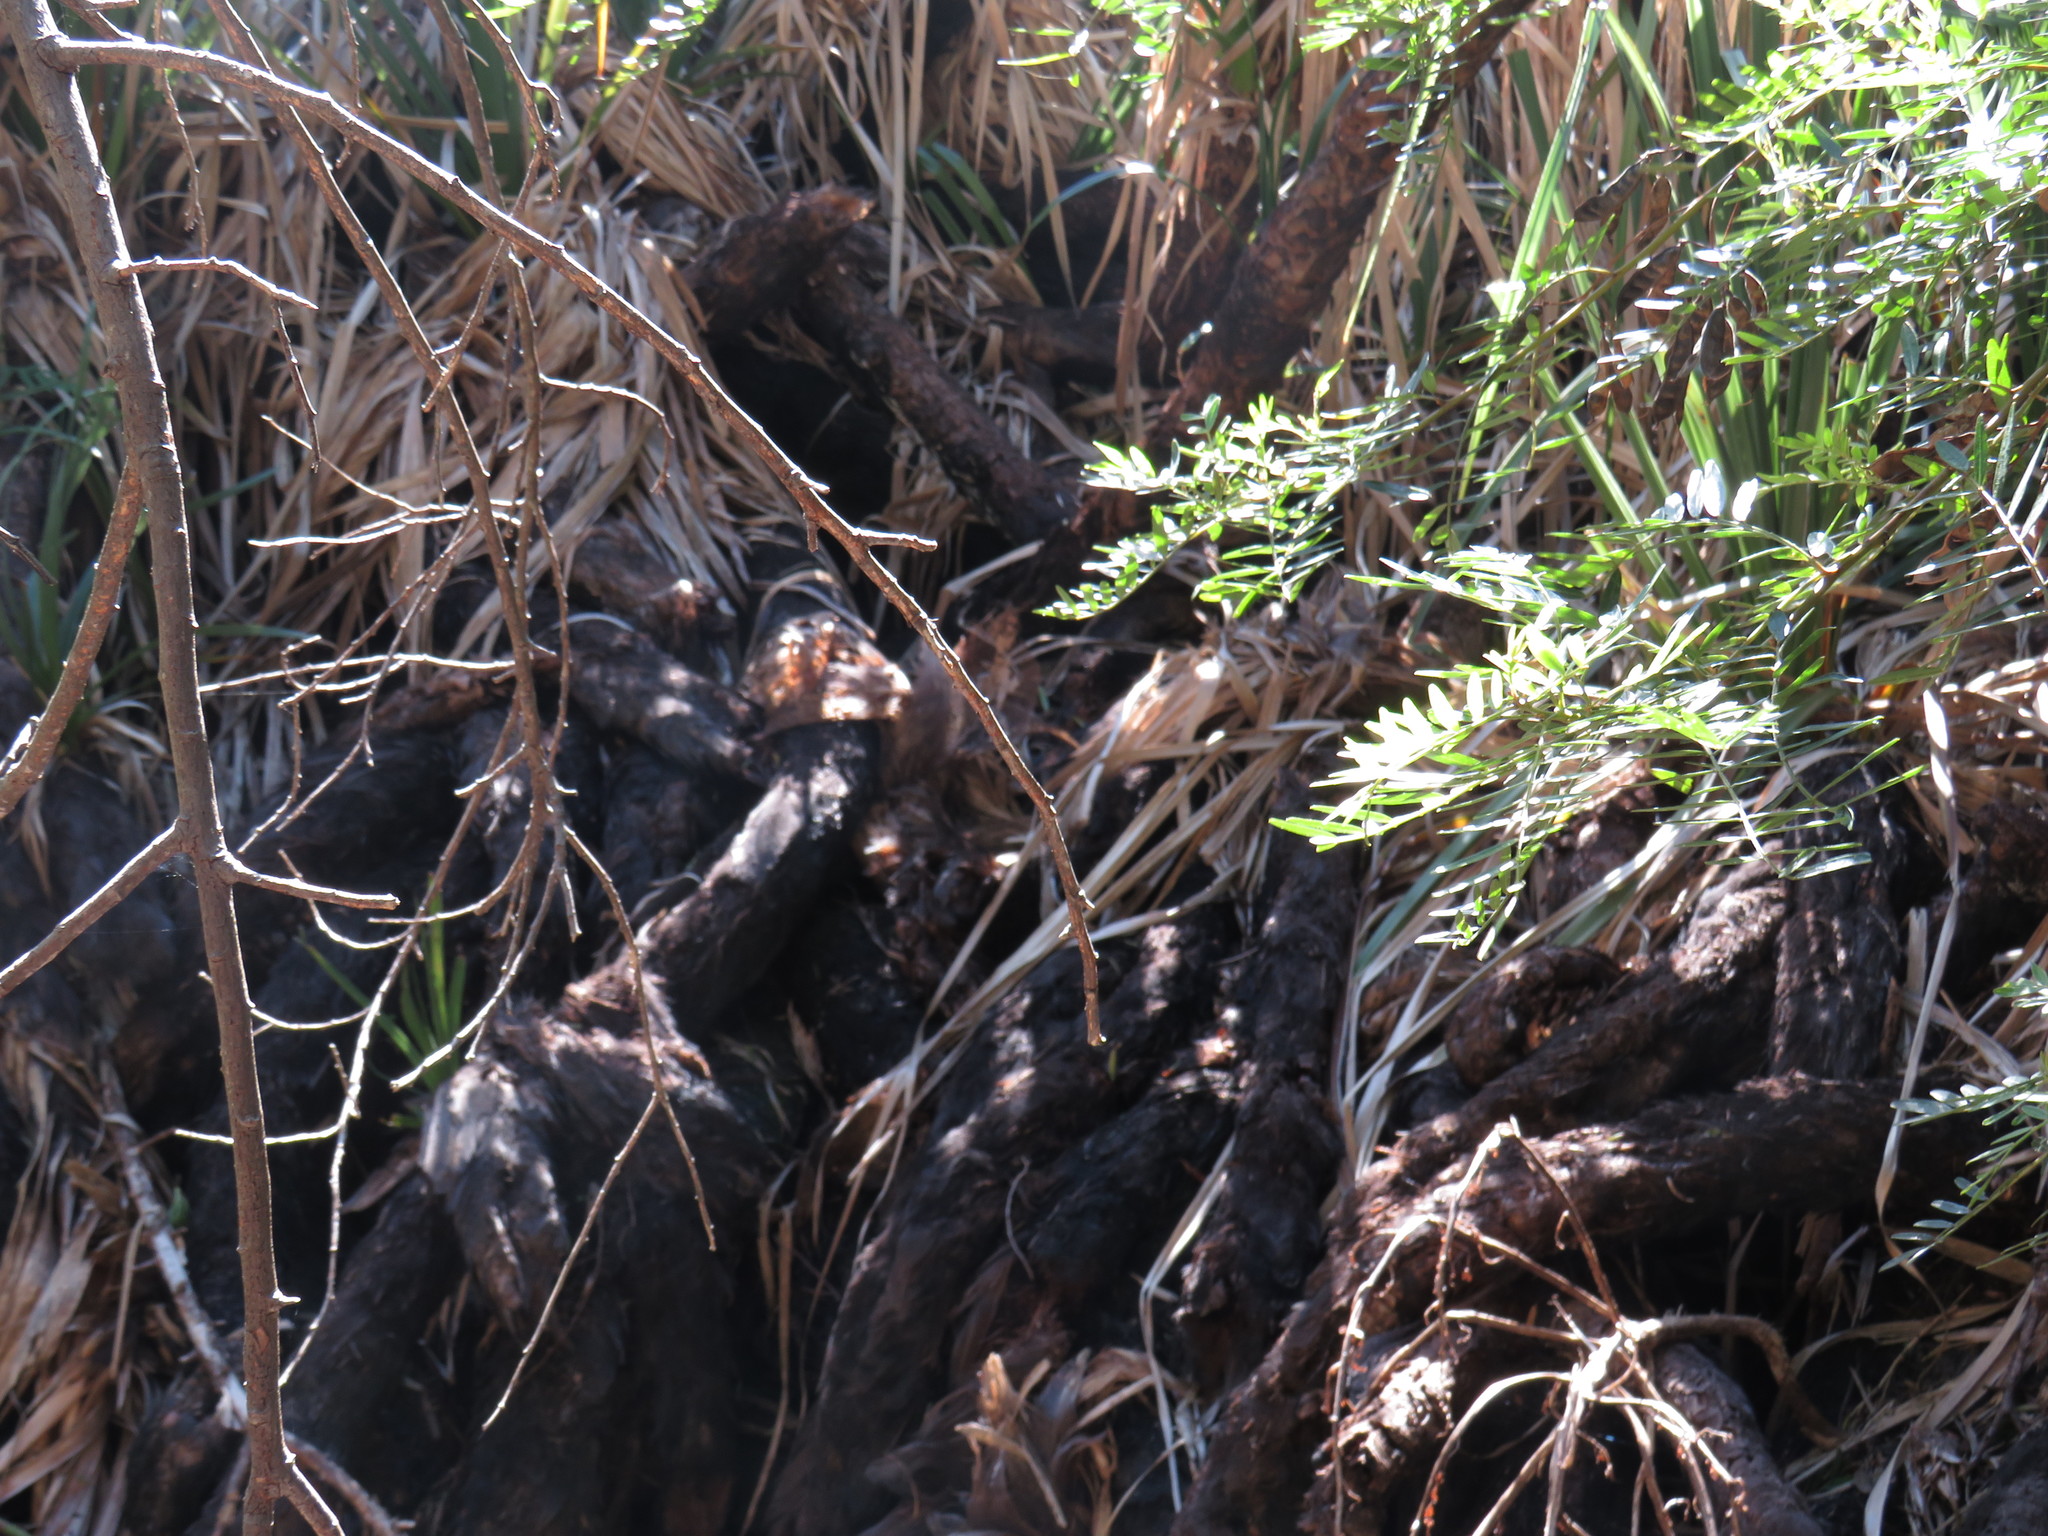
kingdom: Plantae
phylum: Tracheophyta
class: Liliopsida
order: Poales
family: Thurniaceae
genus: Prionium
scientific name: Prionium serratum
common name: Palmiet
